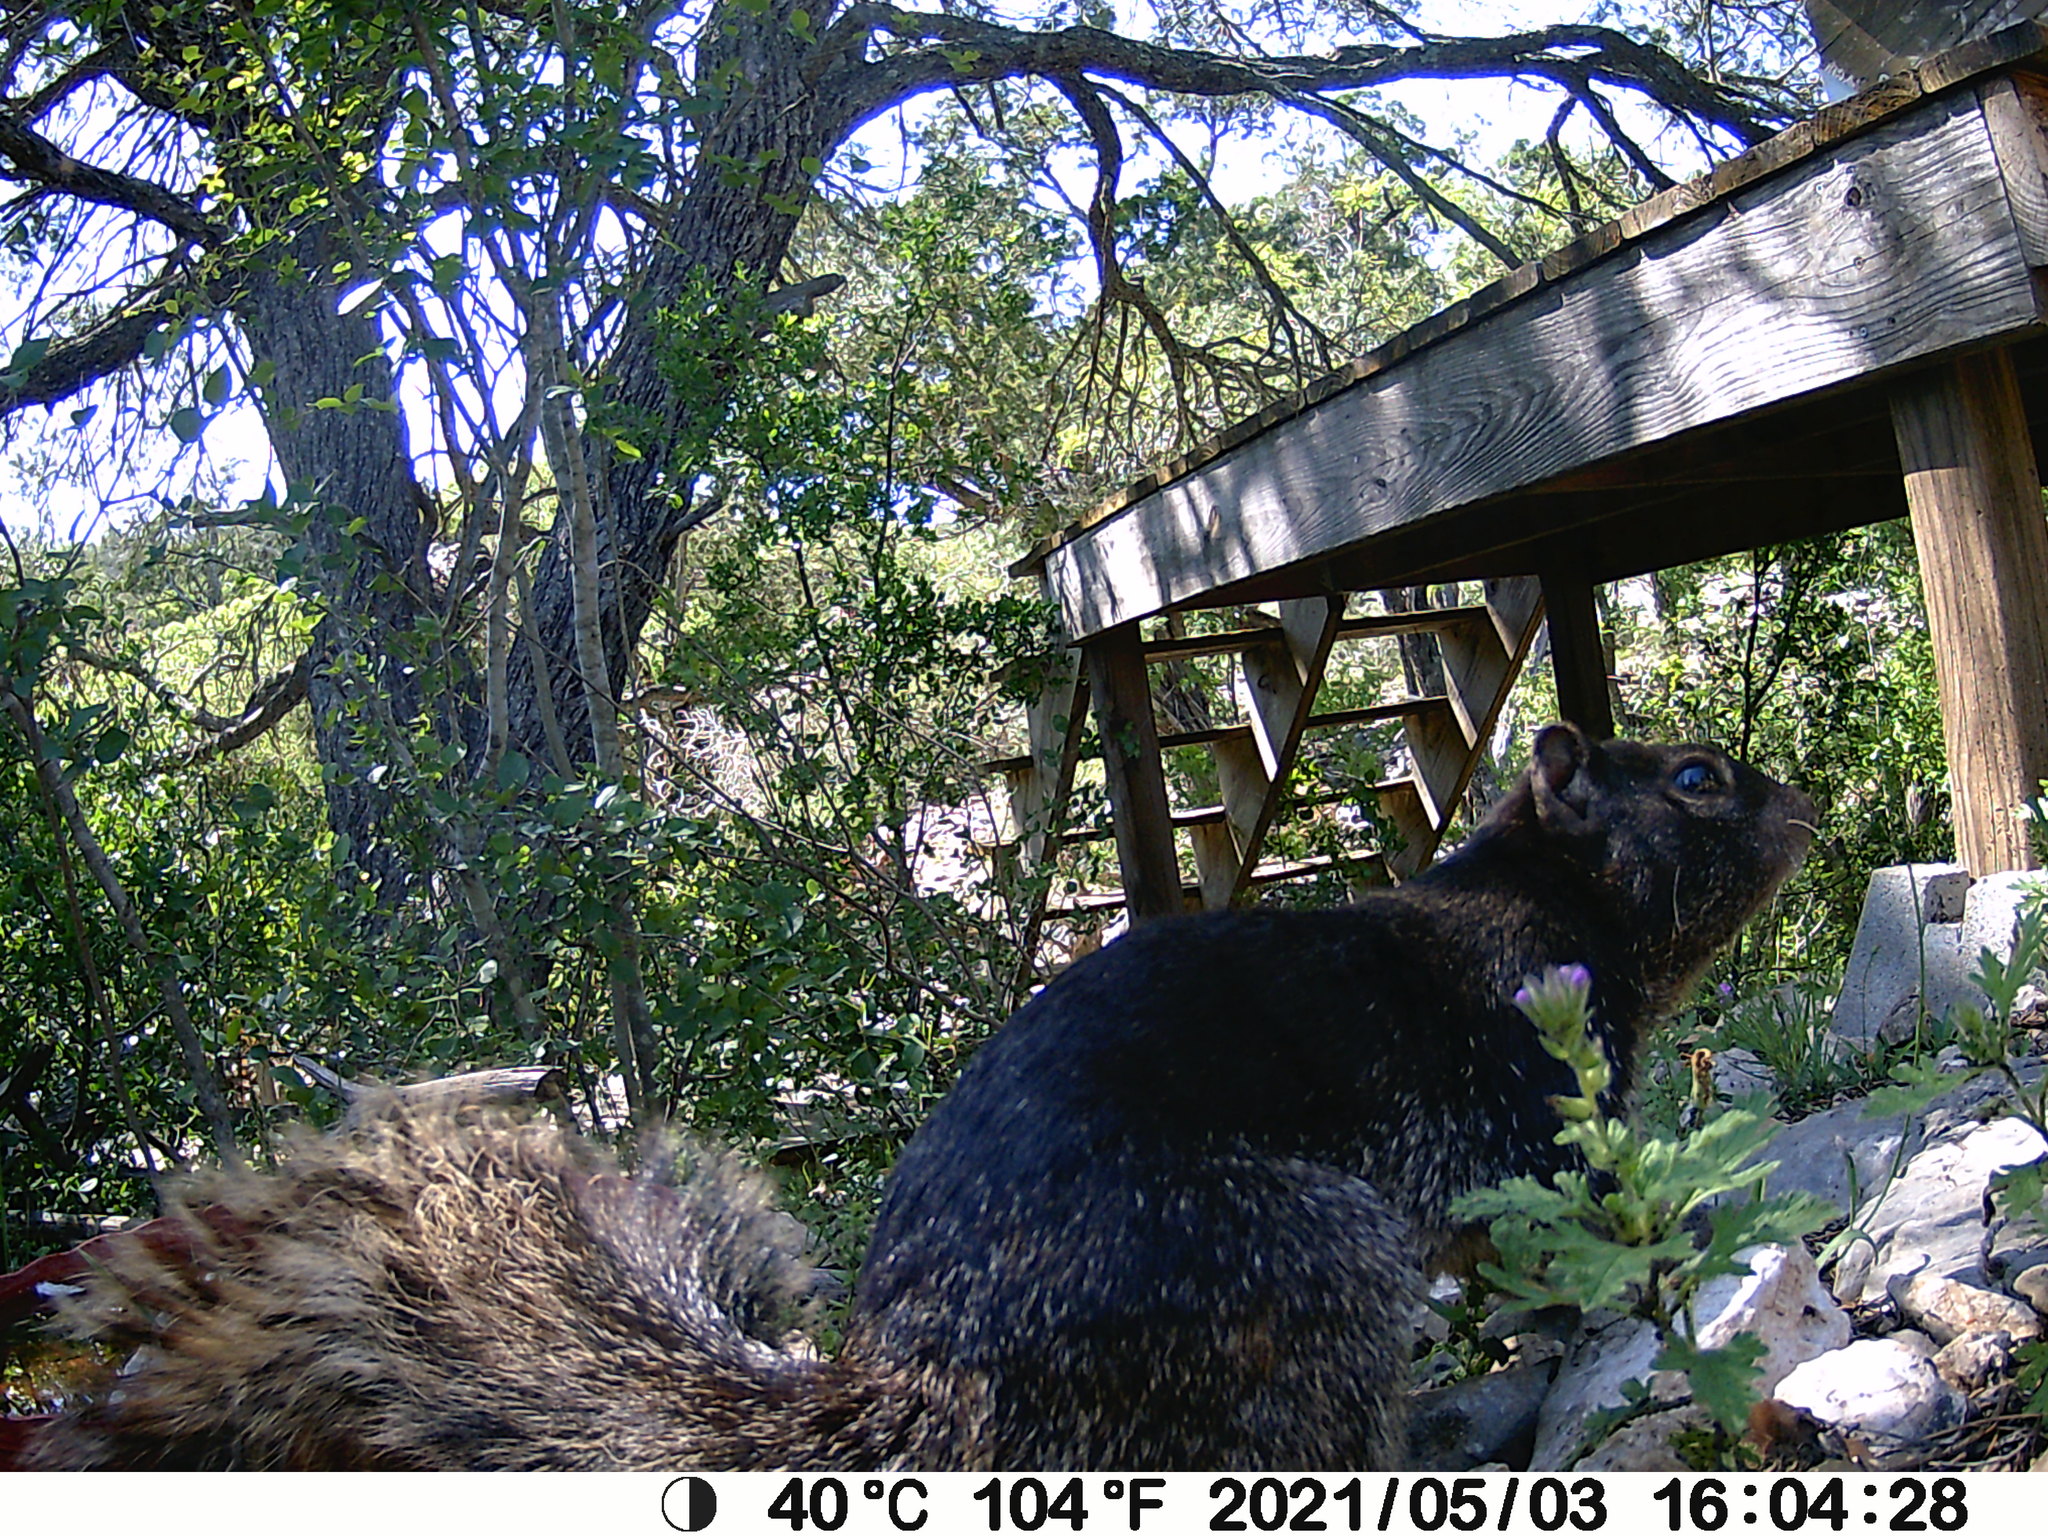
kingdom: Animalia
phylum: Chordata
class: Mammalia
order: Rodentia
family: Sciuridae
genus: Otospermophilus
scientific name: Otospermophilus variegatus
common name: Rock squirrel
